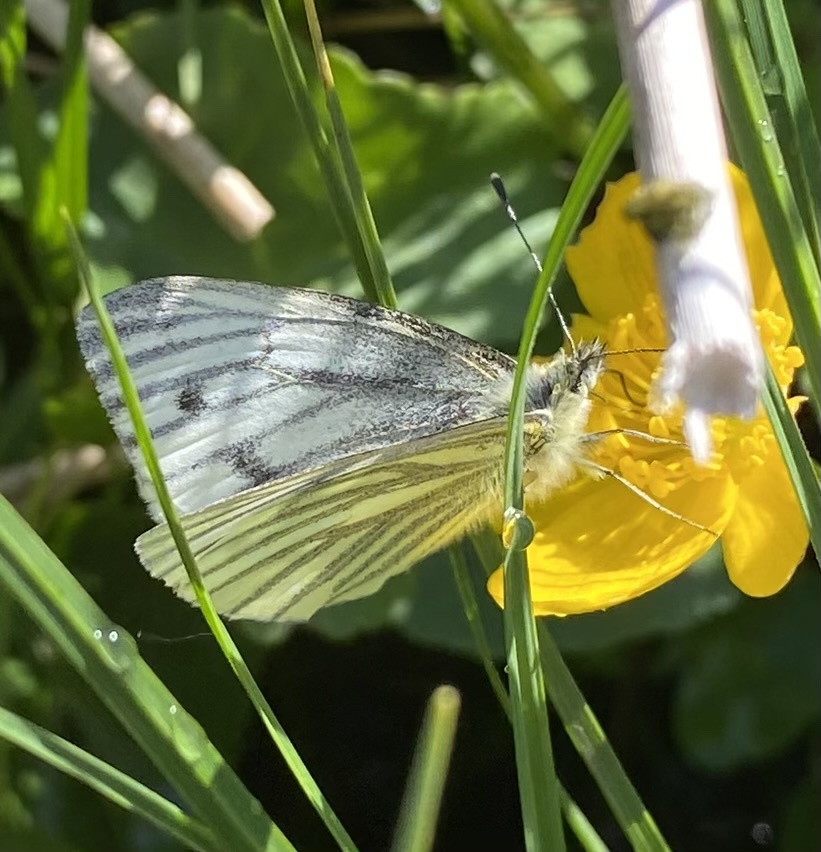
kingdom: Animalia
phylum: Arthropoda
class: Insecta
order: Lepidoptera
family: Pieridae
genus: Pieris
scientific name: Pieris napi
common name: Green-veined white
